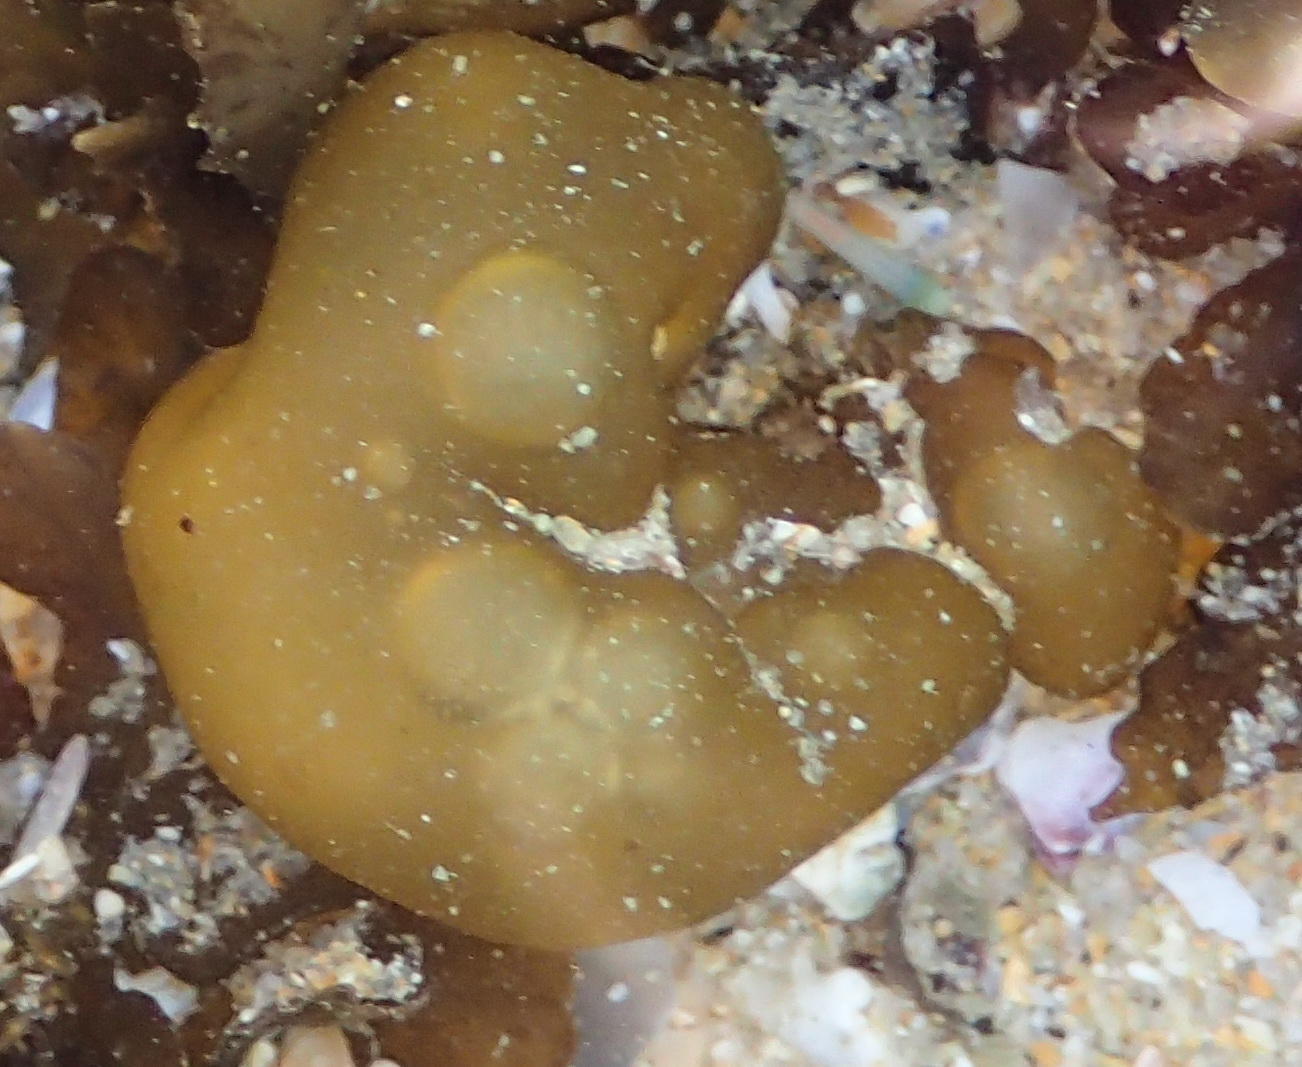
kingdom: Chromista
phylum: Ochrophyta
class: Phaeophyceae
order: Scytosiphonales
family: Scytosiphonaceae
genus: Colpomenia
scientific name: Colpomenia sinuosa
